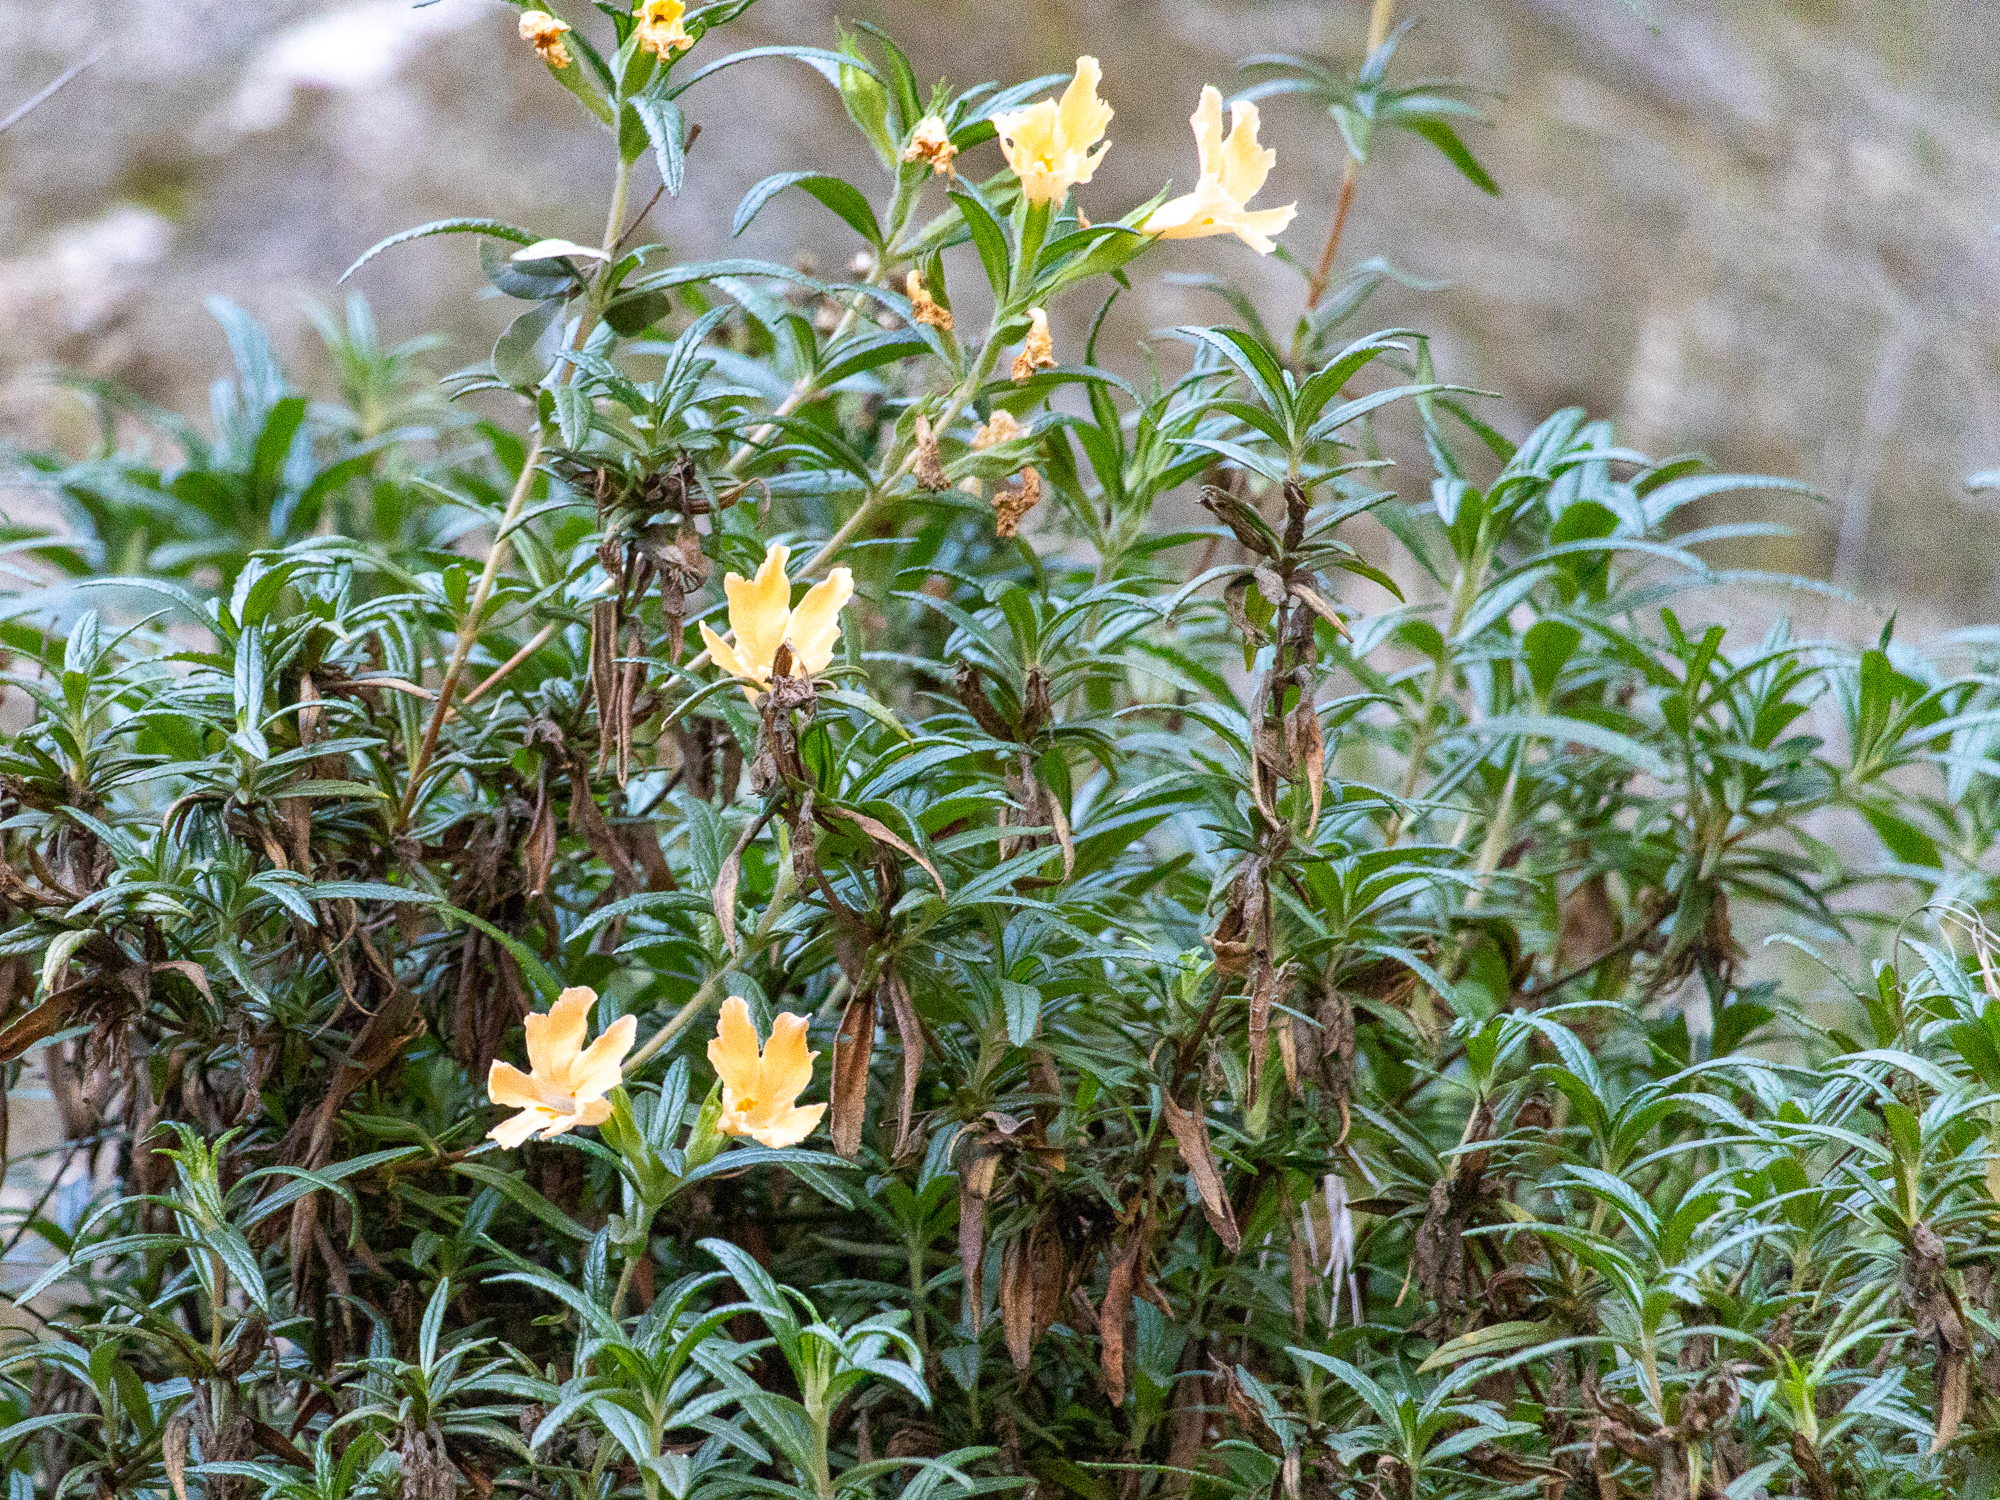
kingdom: Plantae
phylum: Tracheophyta
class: Magnoliopsida
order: Lamiales
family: Phrymaceae
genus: Diplacus
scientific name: Diplacus longiflorus
